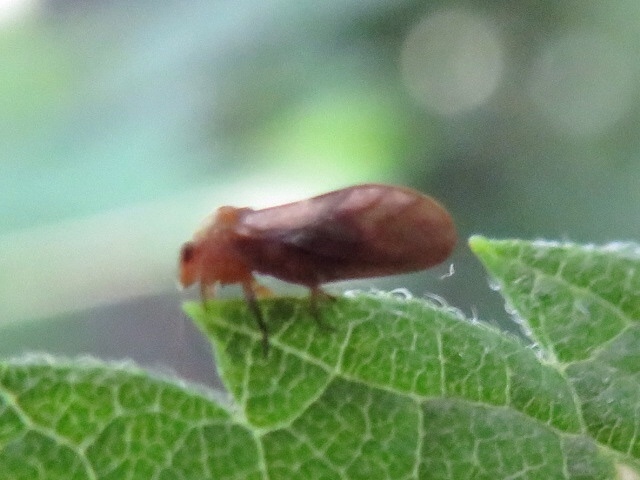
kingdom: Animalia
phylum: Arthropoda
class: Insecta
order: Hemiptera
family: Aphalaridae
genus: Pachypsylla
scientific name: Pachypsylla celtidisgemma
